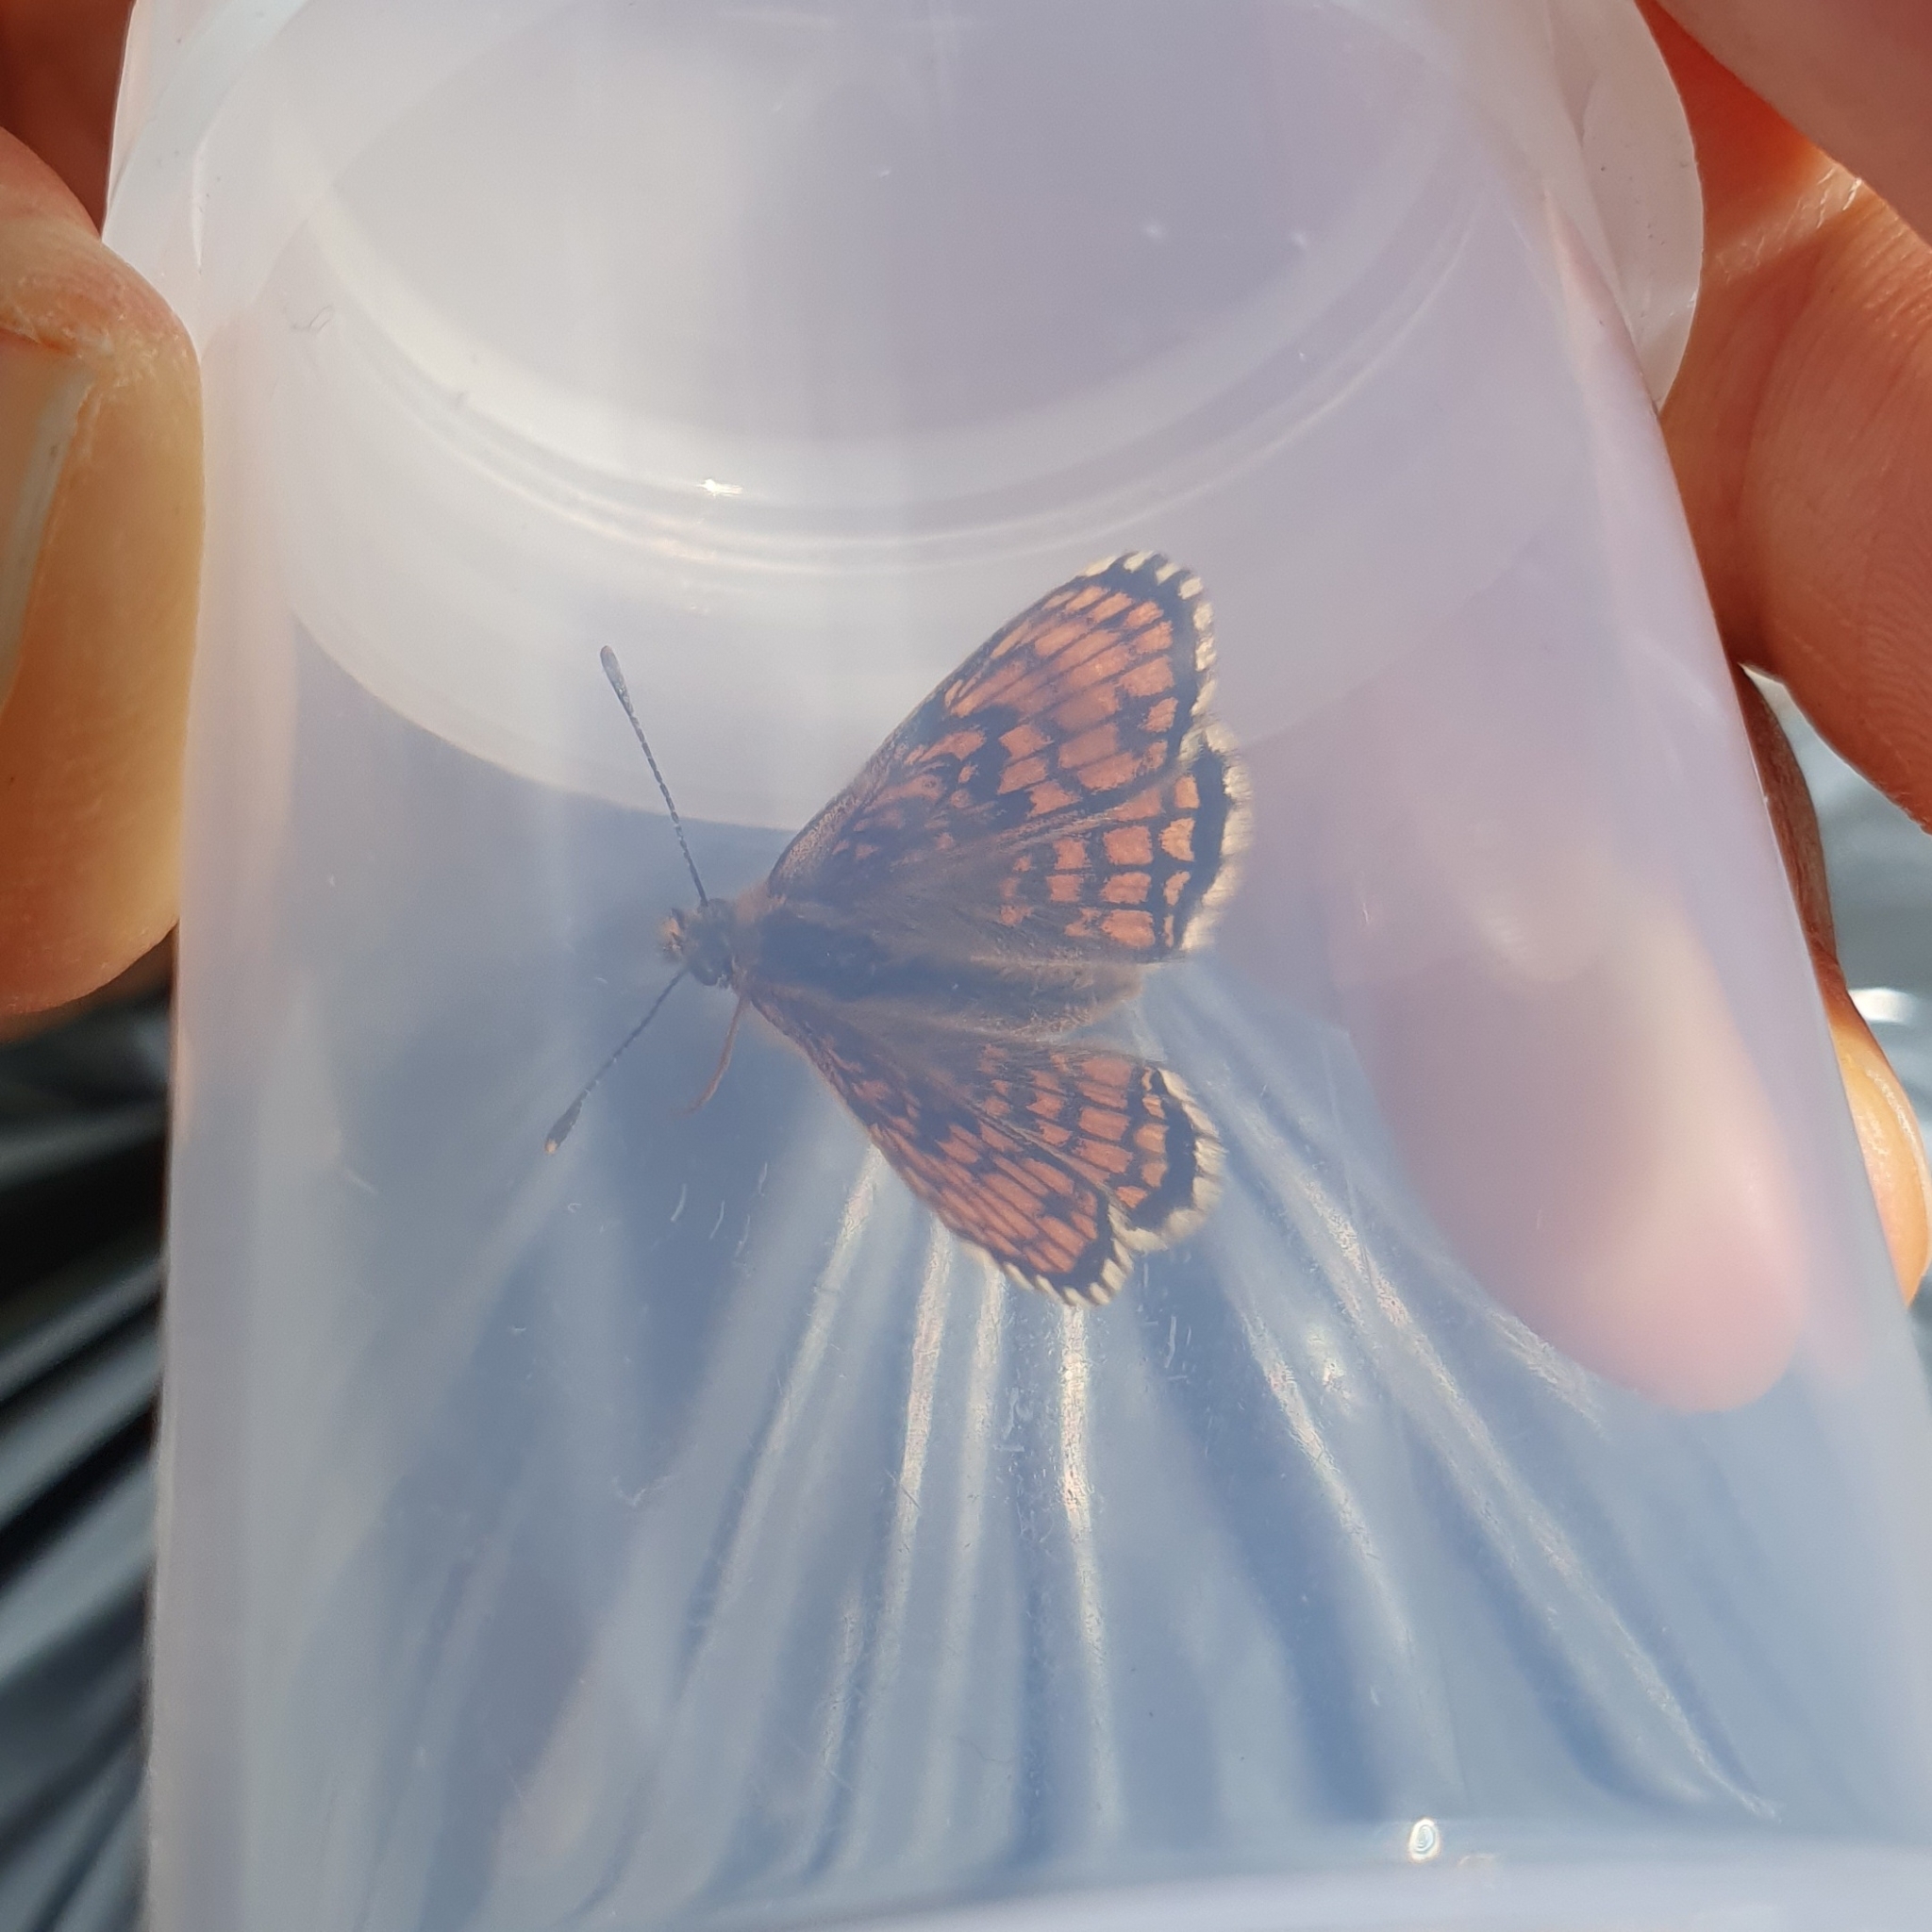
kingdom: Animalia
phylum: Arthropoda
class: Insecta
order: Lepidoptera
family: Nymphalidae
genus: Melitaea
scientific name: Melitaea athalia
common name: Heath fritillary
